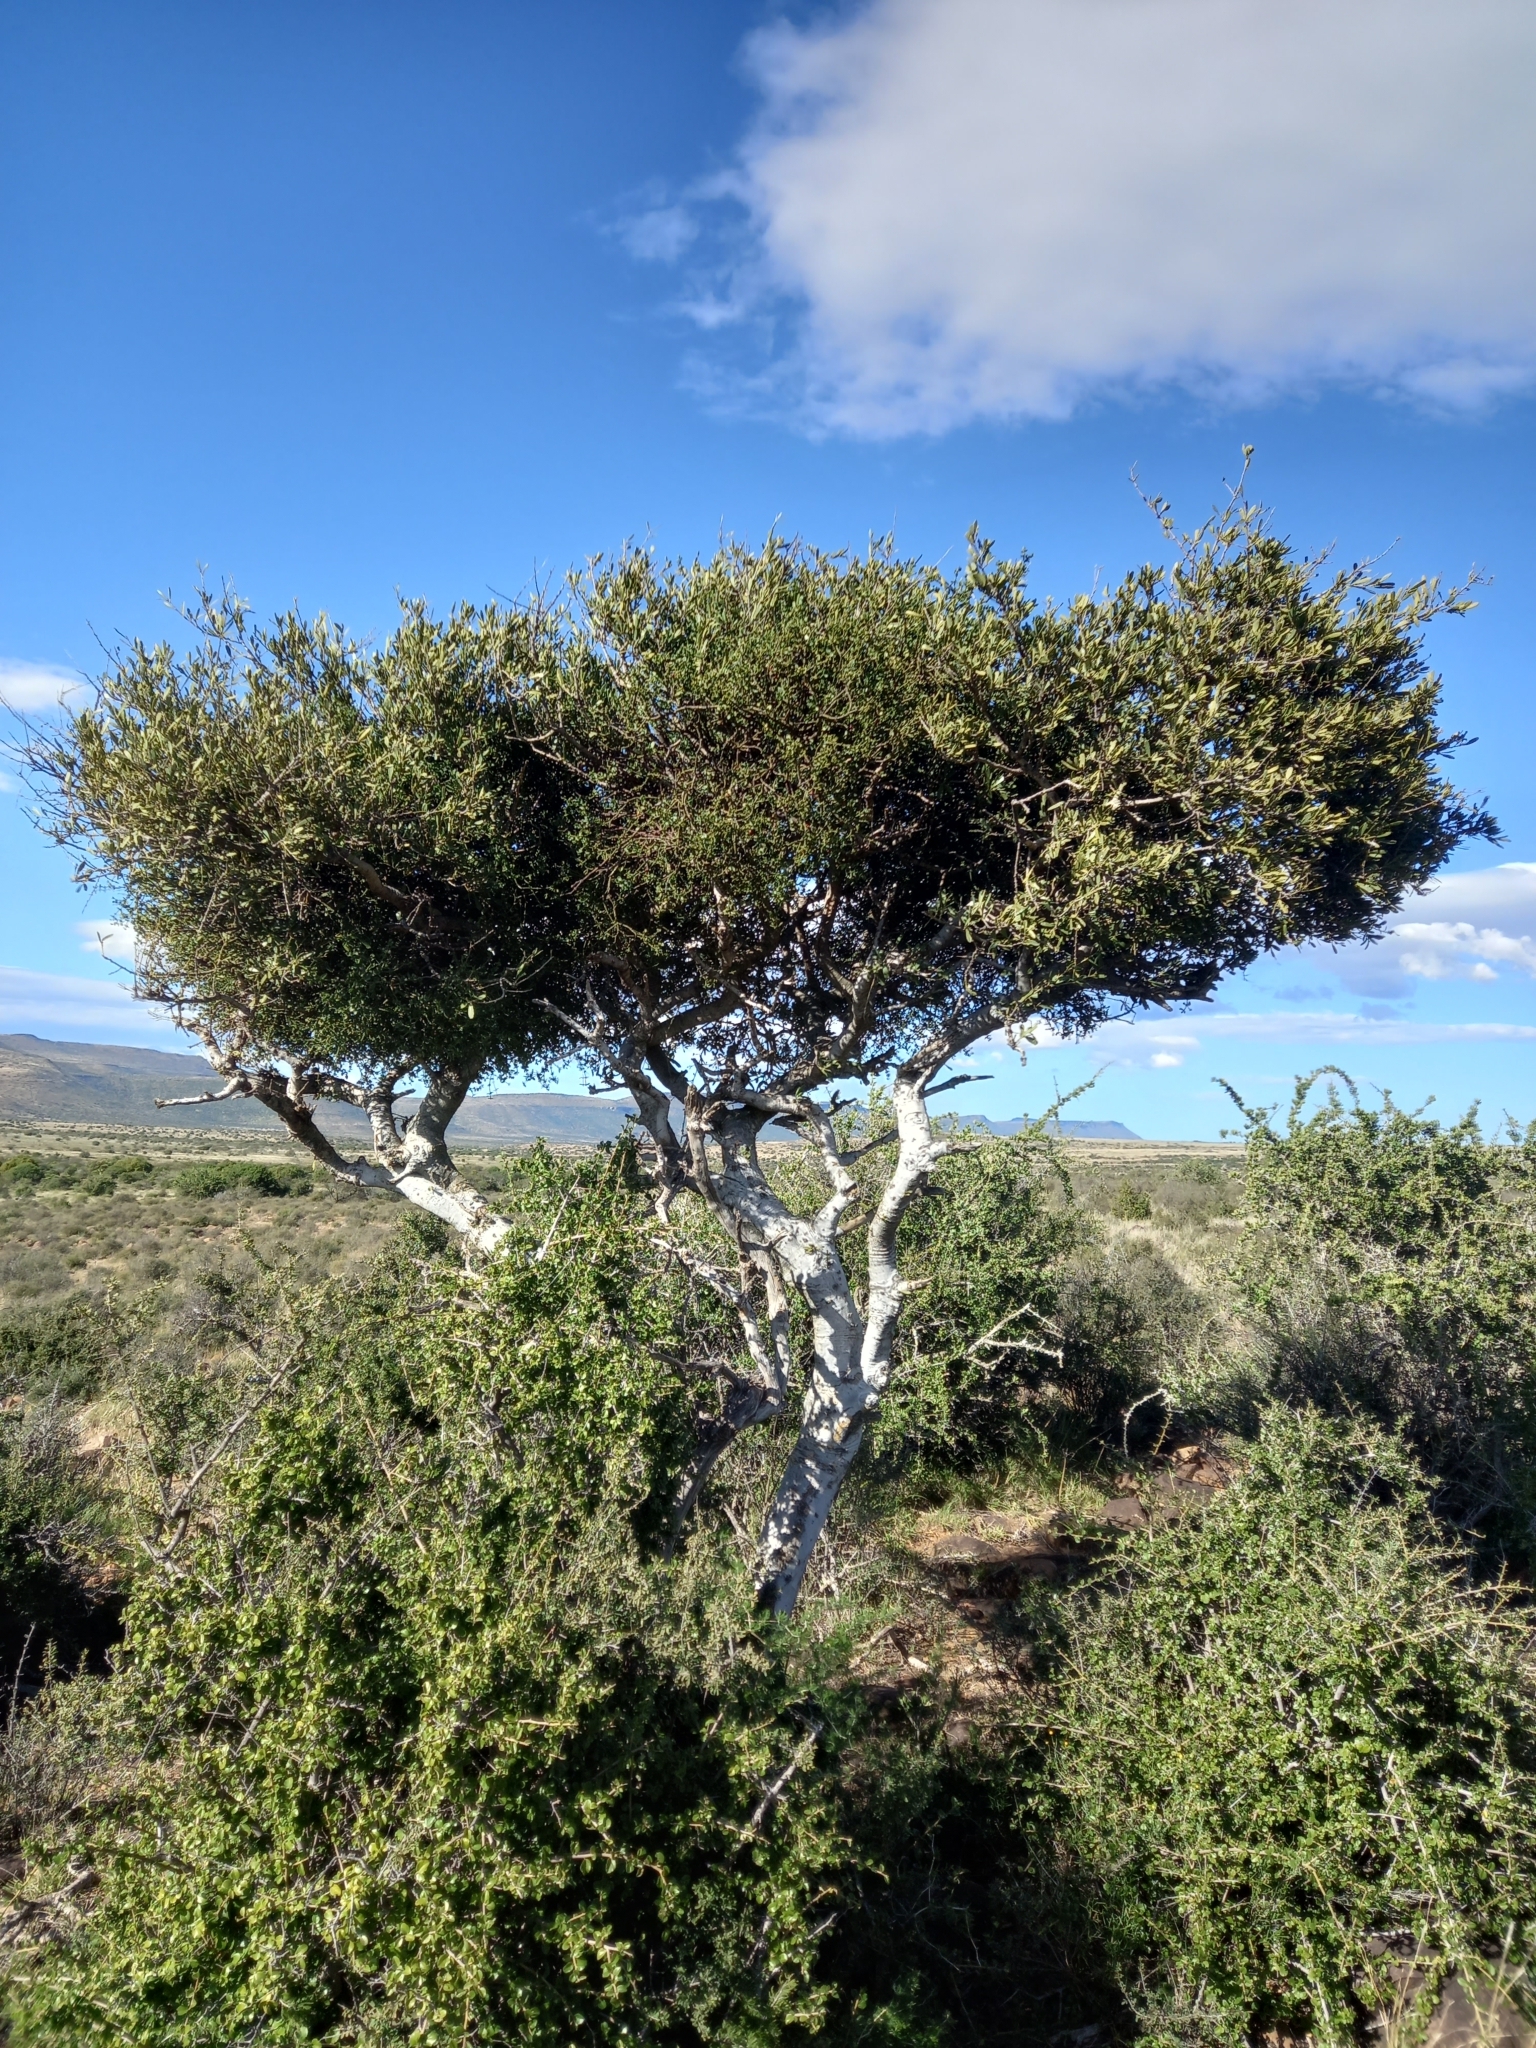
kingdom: Plantae
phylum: Tracheophyta
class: Magnoliopsida
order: Brassicales
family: Capparaceae
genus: Boscia
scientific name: Boscia oleoides
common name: Karoo shepherd tree
